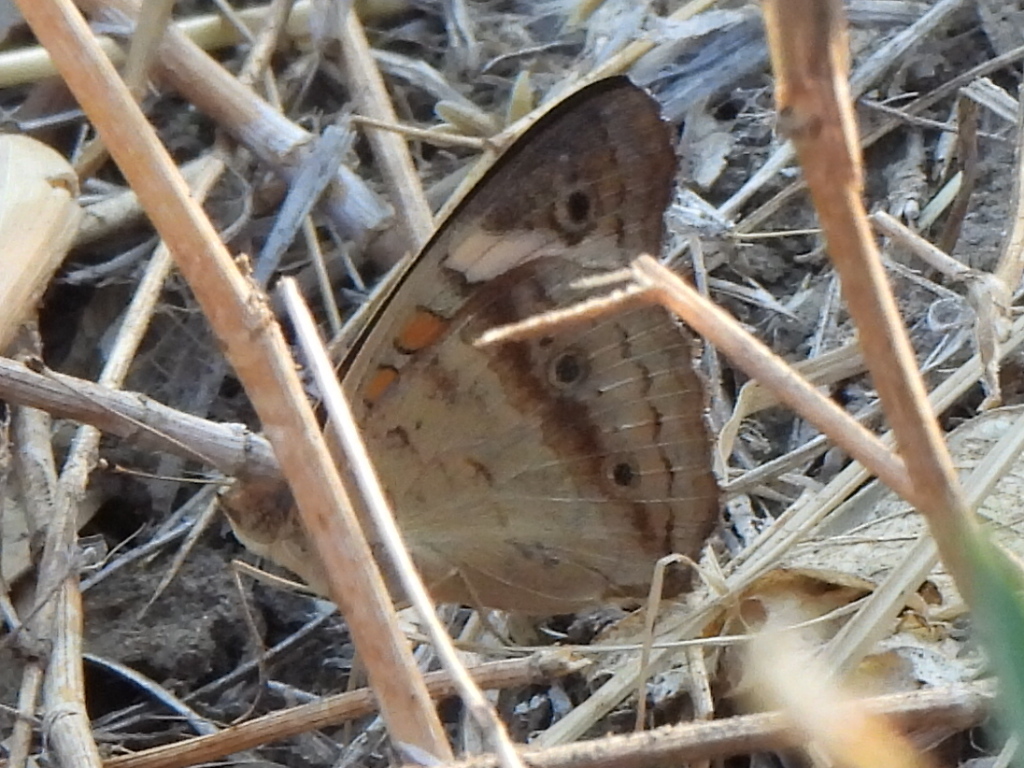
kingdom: Animalia
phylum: Arthropoda
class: Insecta
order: Lepidoptera
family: Nymphalidae
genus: Junonia
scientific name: Junonia coenia
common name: Common buckeye
